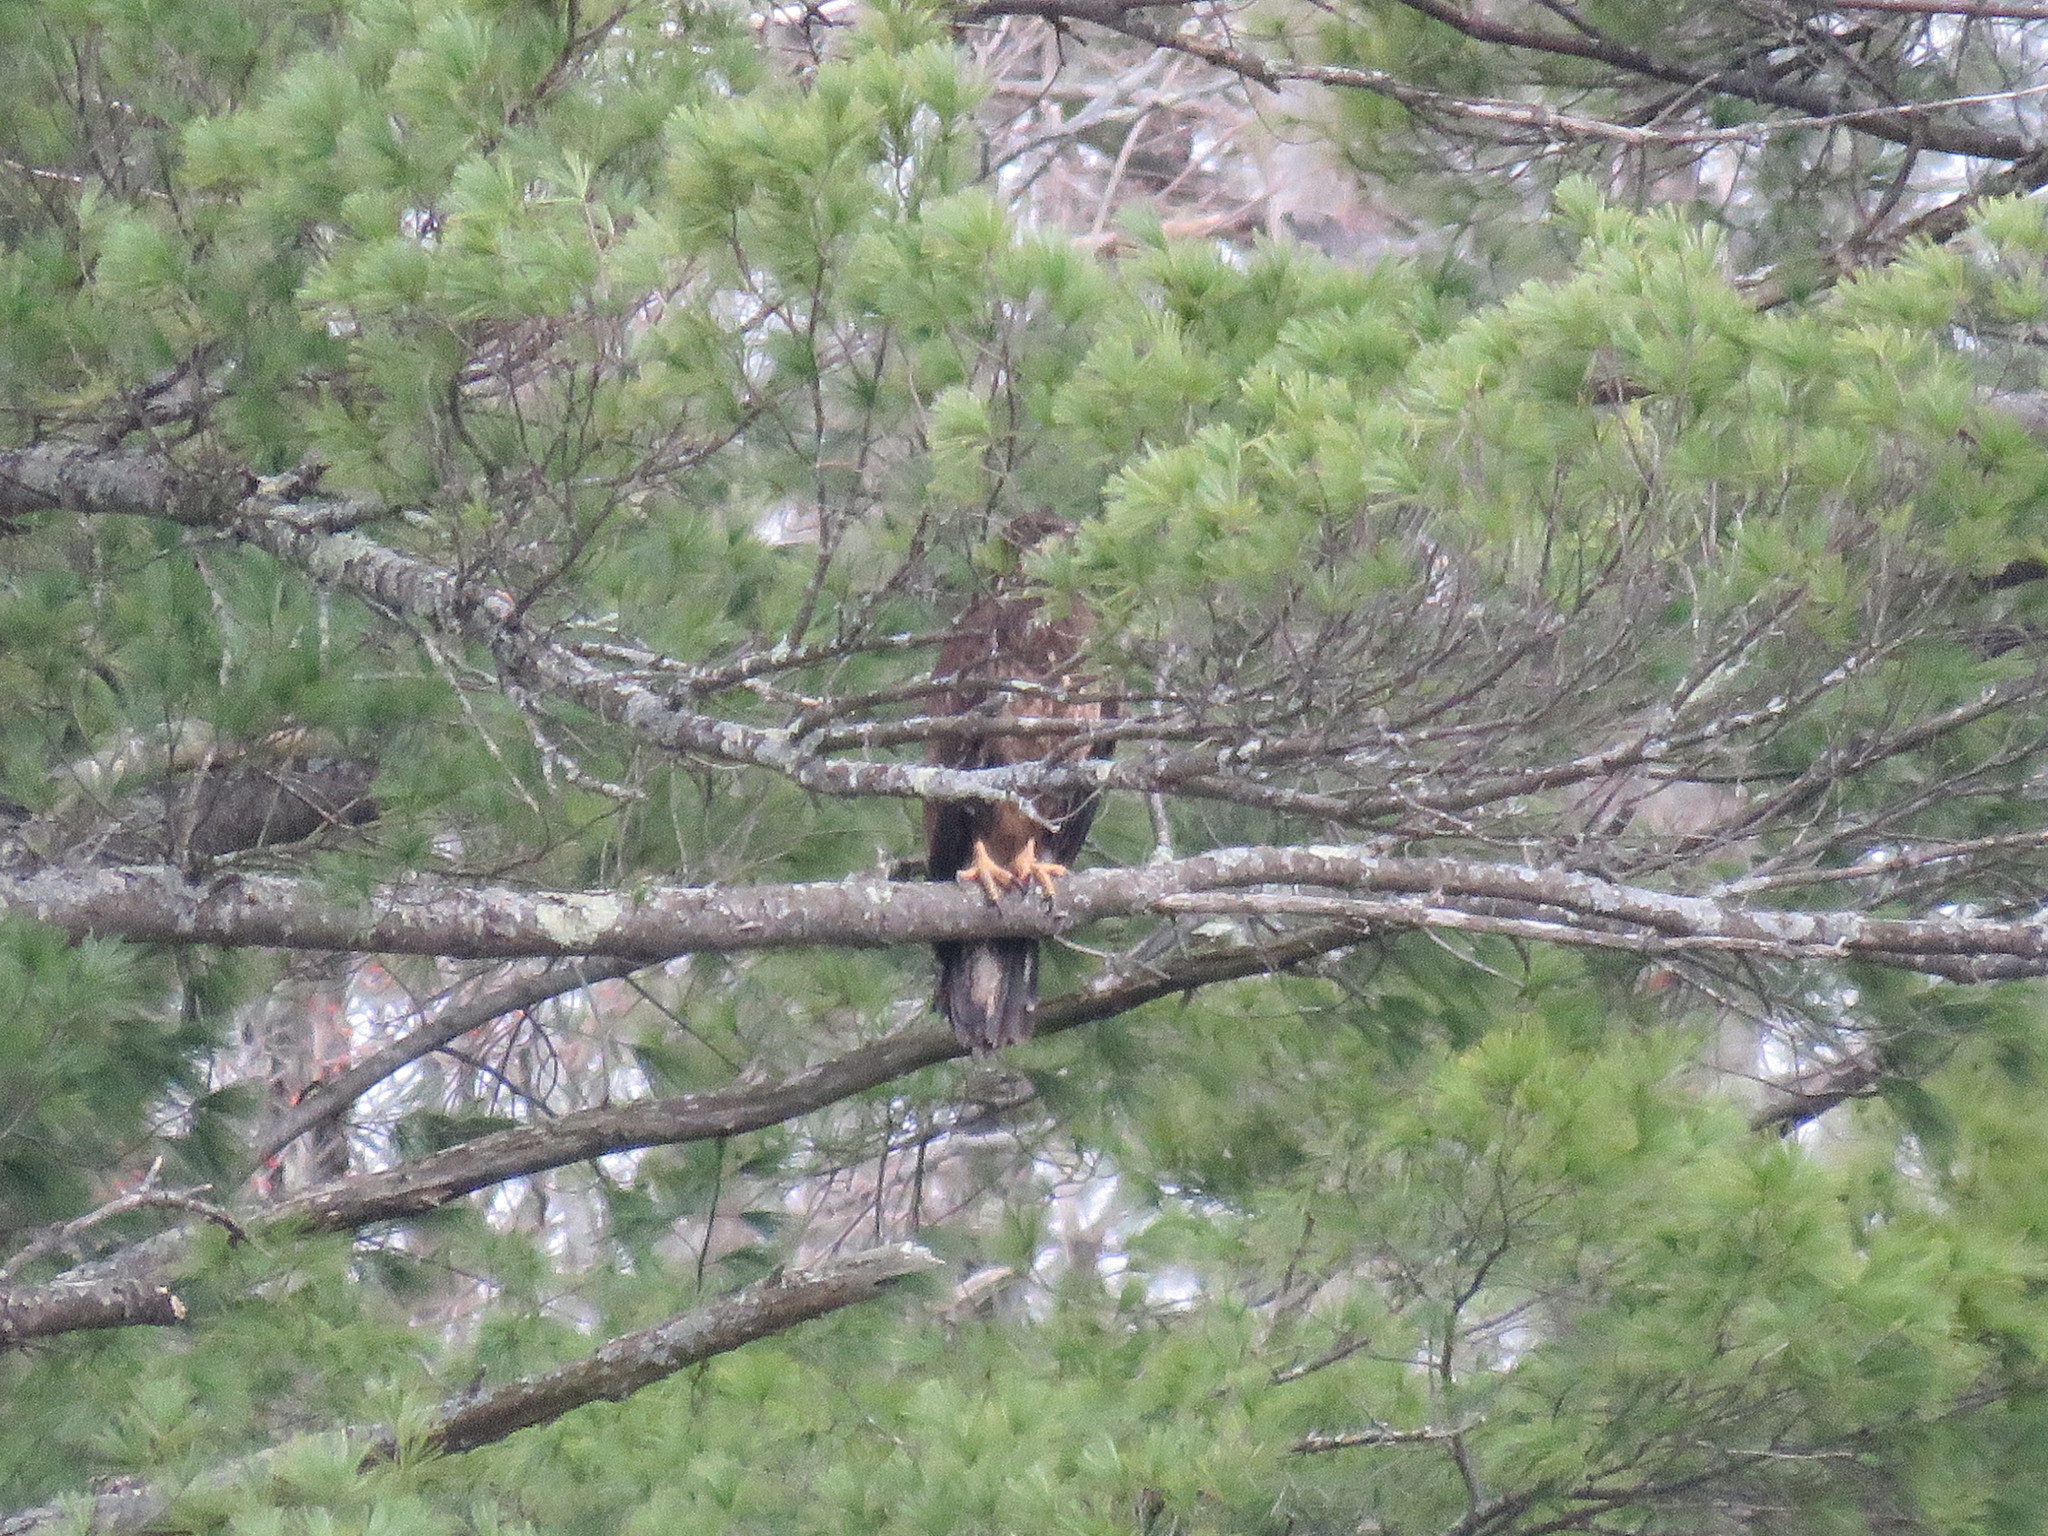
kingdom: Animalia
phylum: Chordata
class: Aves
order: Accipitriformes
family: Accipitridae
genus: Haliaeetus
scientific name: Haliaeetus leucocephalus
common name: Bald eagle
